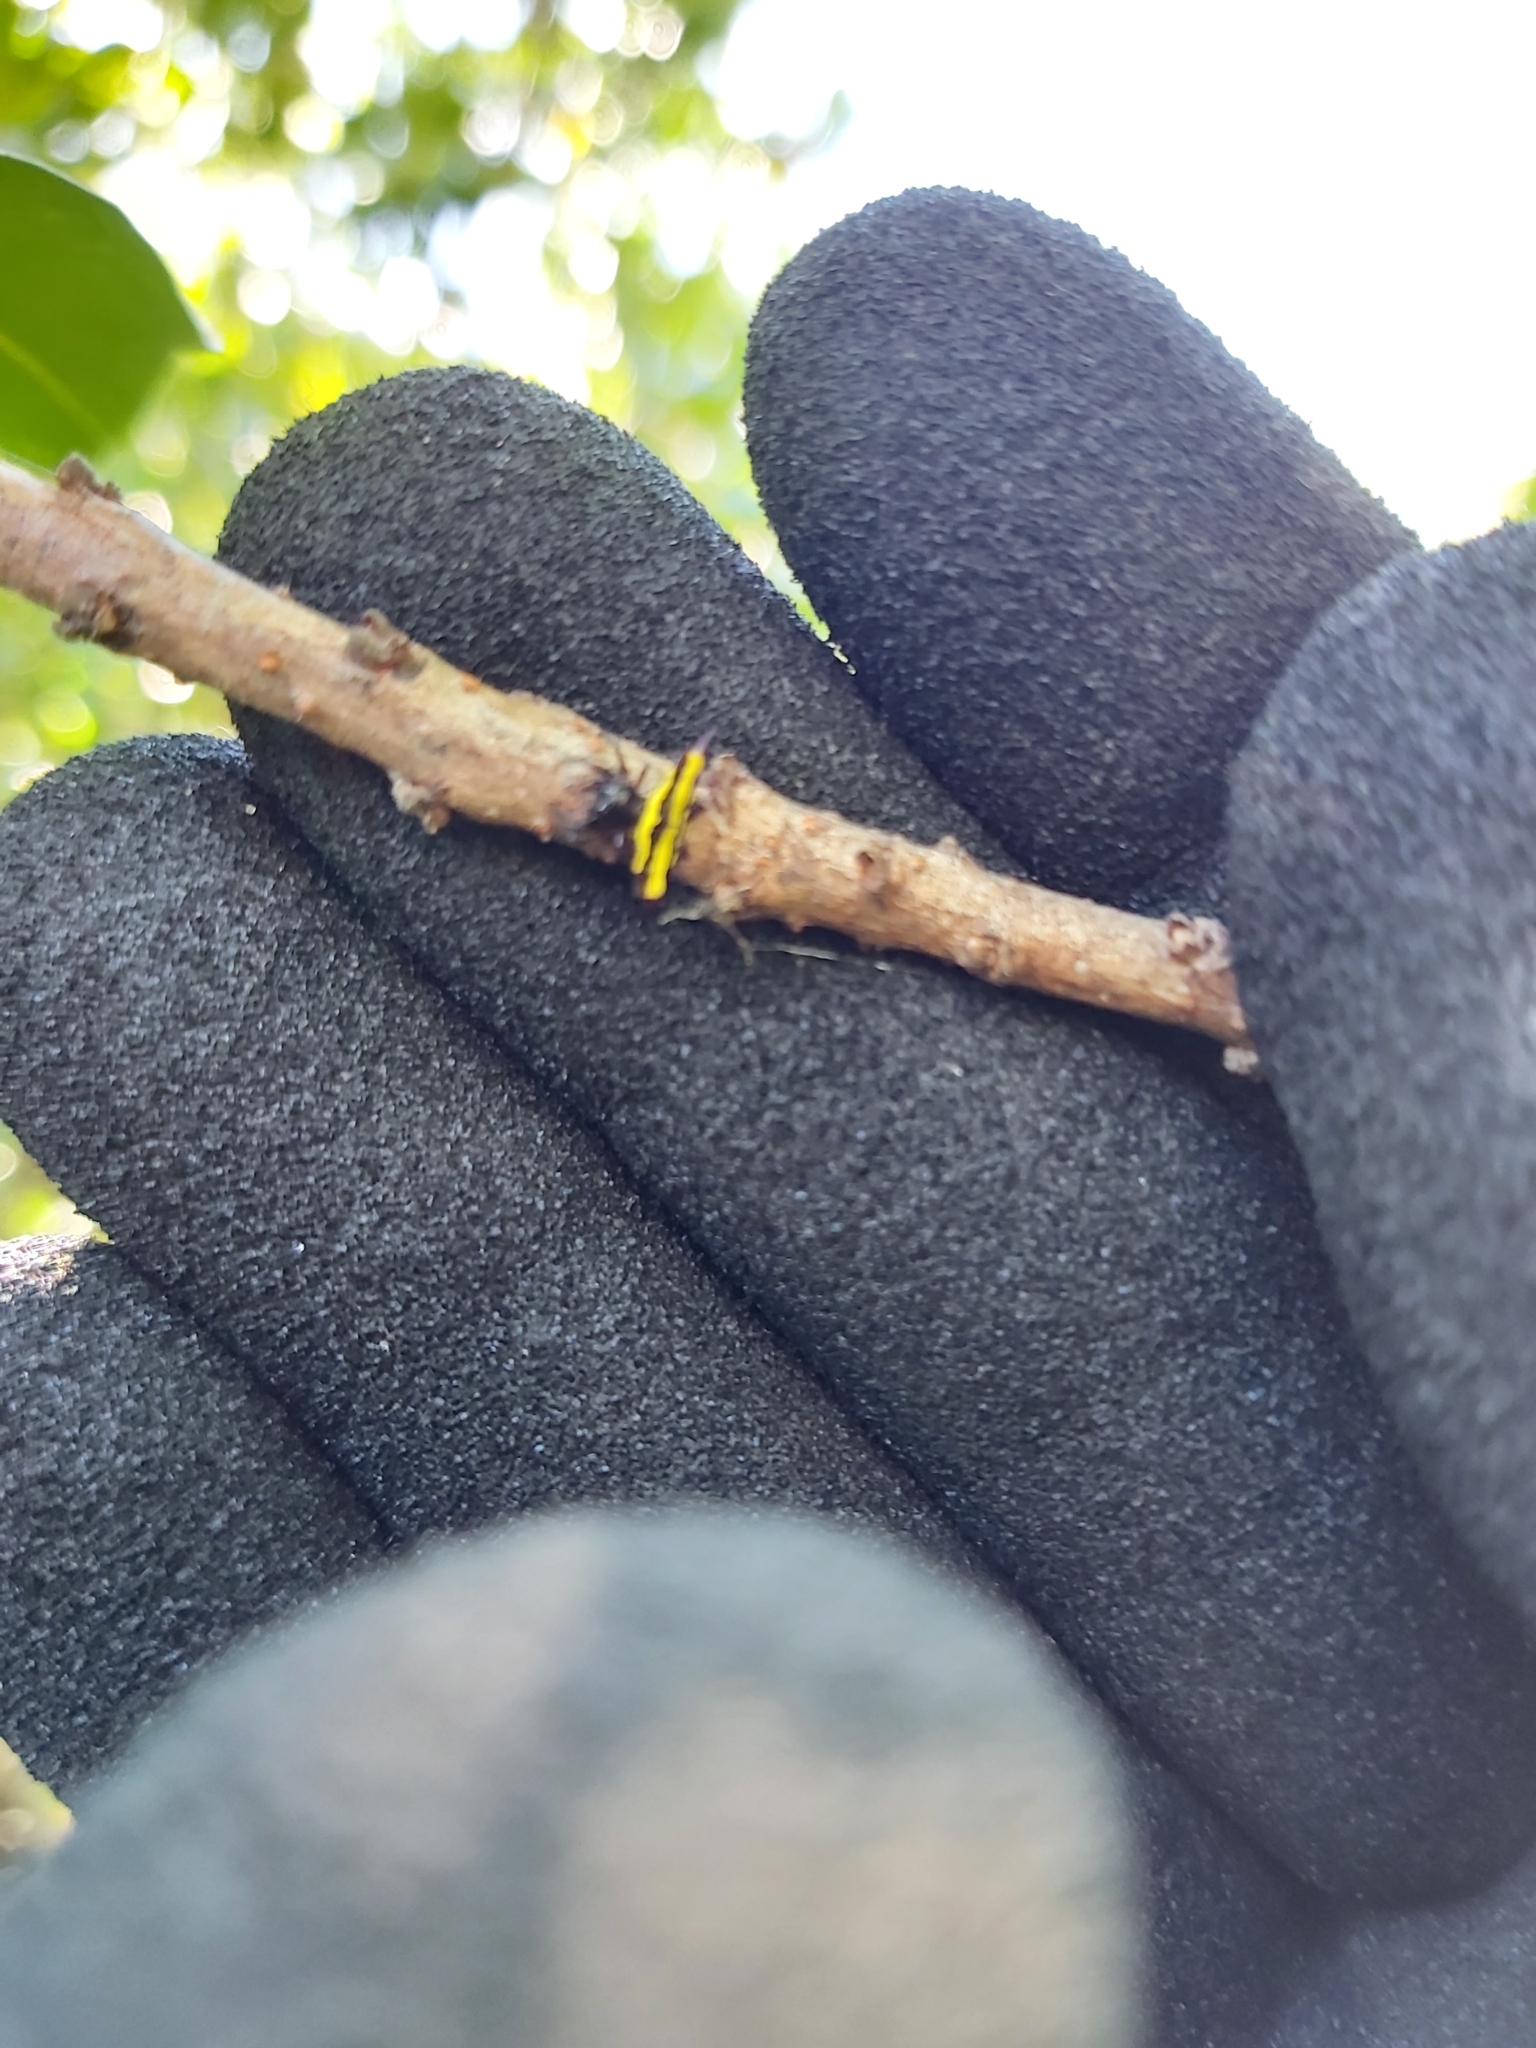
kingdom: Animalia
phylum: Arthropoda
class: Arachnida
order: Araneae
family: Araneidae
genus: Gasteracantha
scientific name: Gasteracantha fornicata
